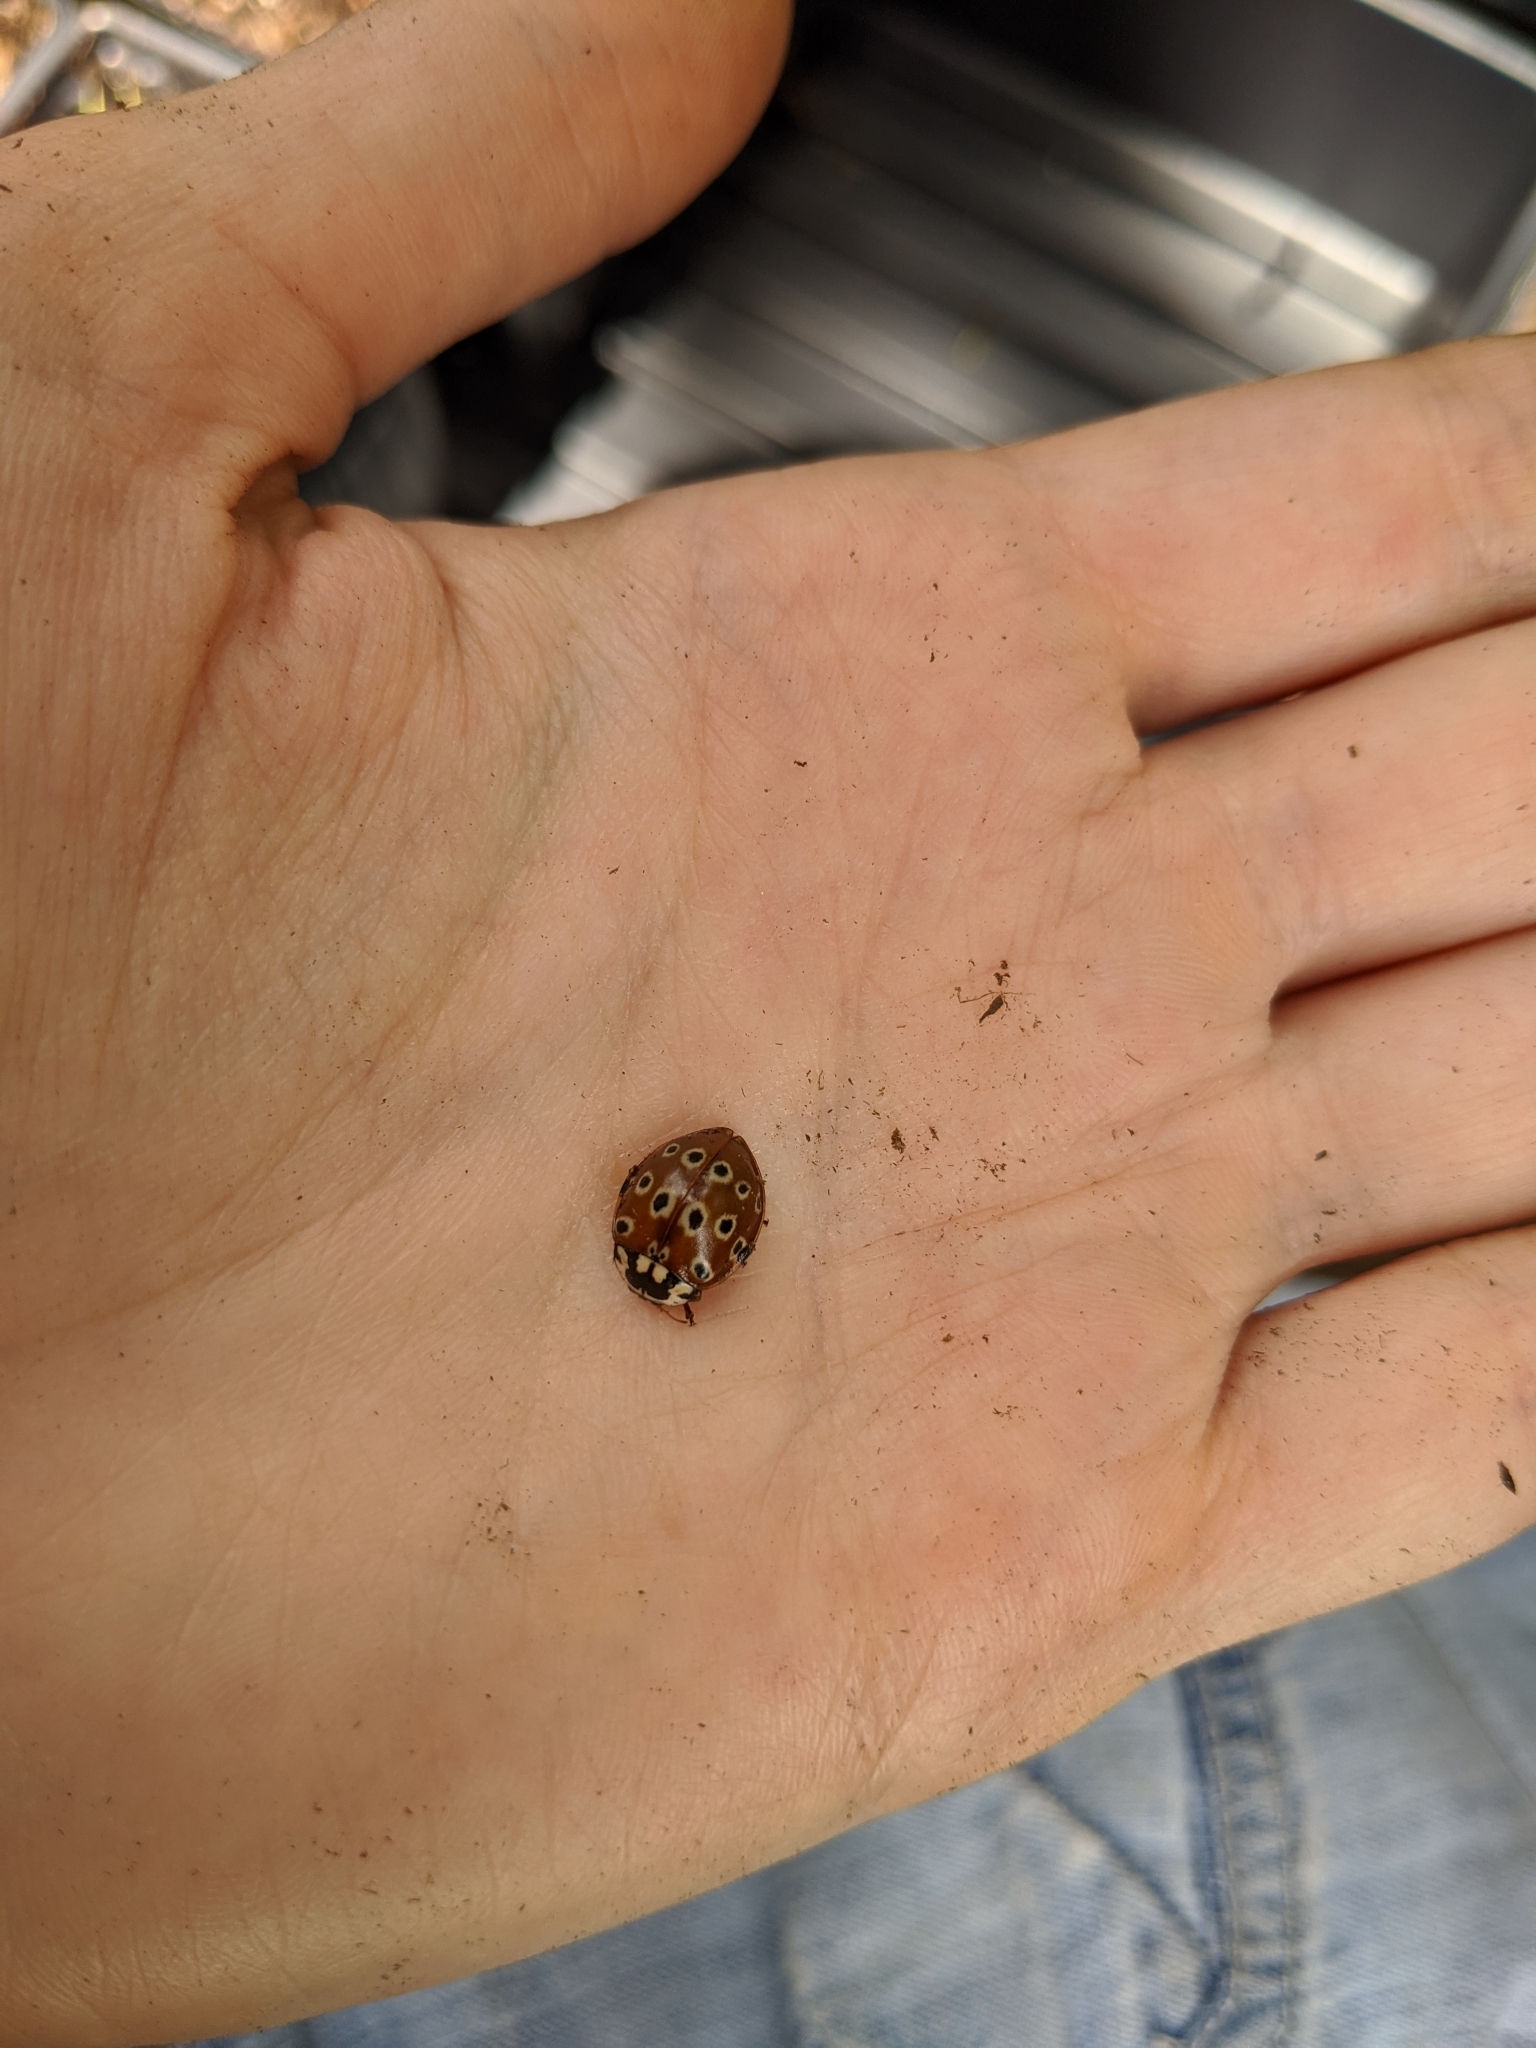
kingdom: Animalia
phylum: Arthropoda
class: Insecta
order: Coleoptera
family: Coccinellidae
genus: Anatis
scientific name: Anatis mali
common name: Eye-spotted lady beetle
